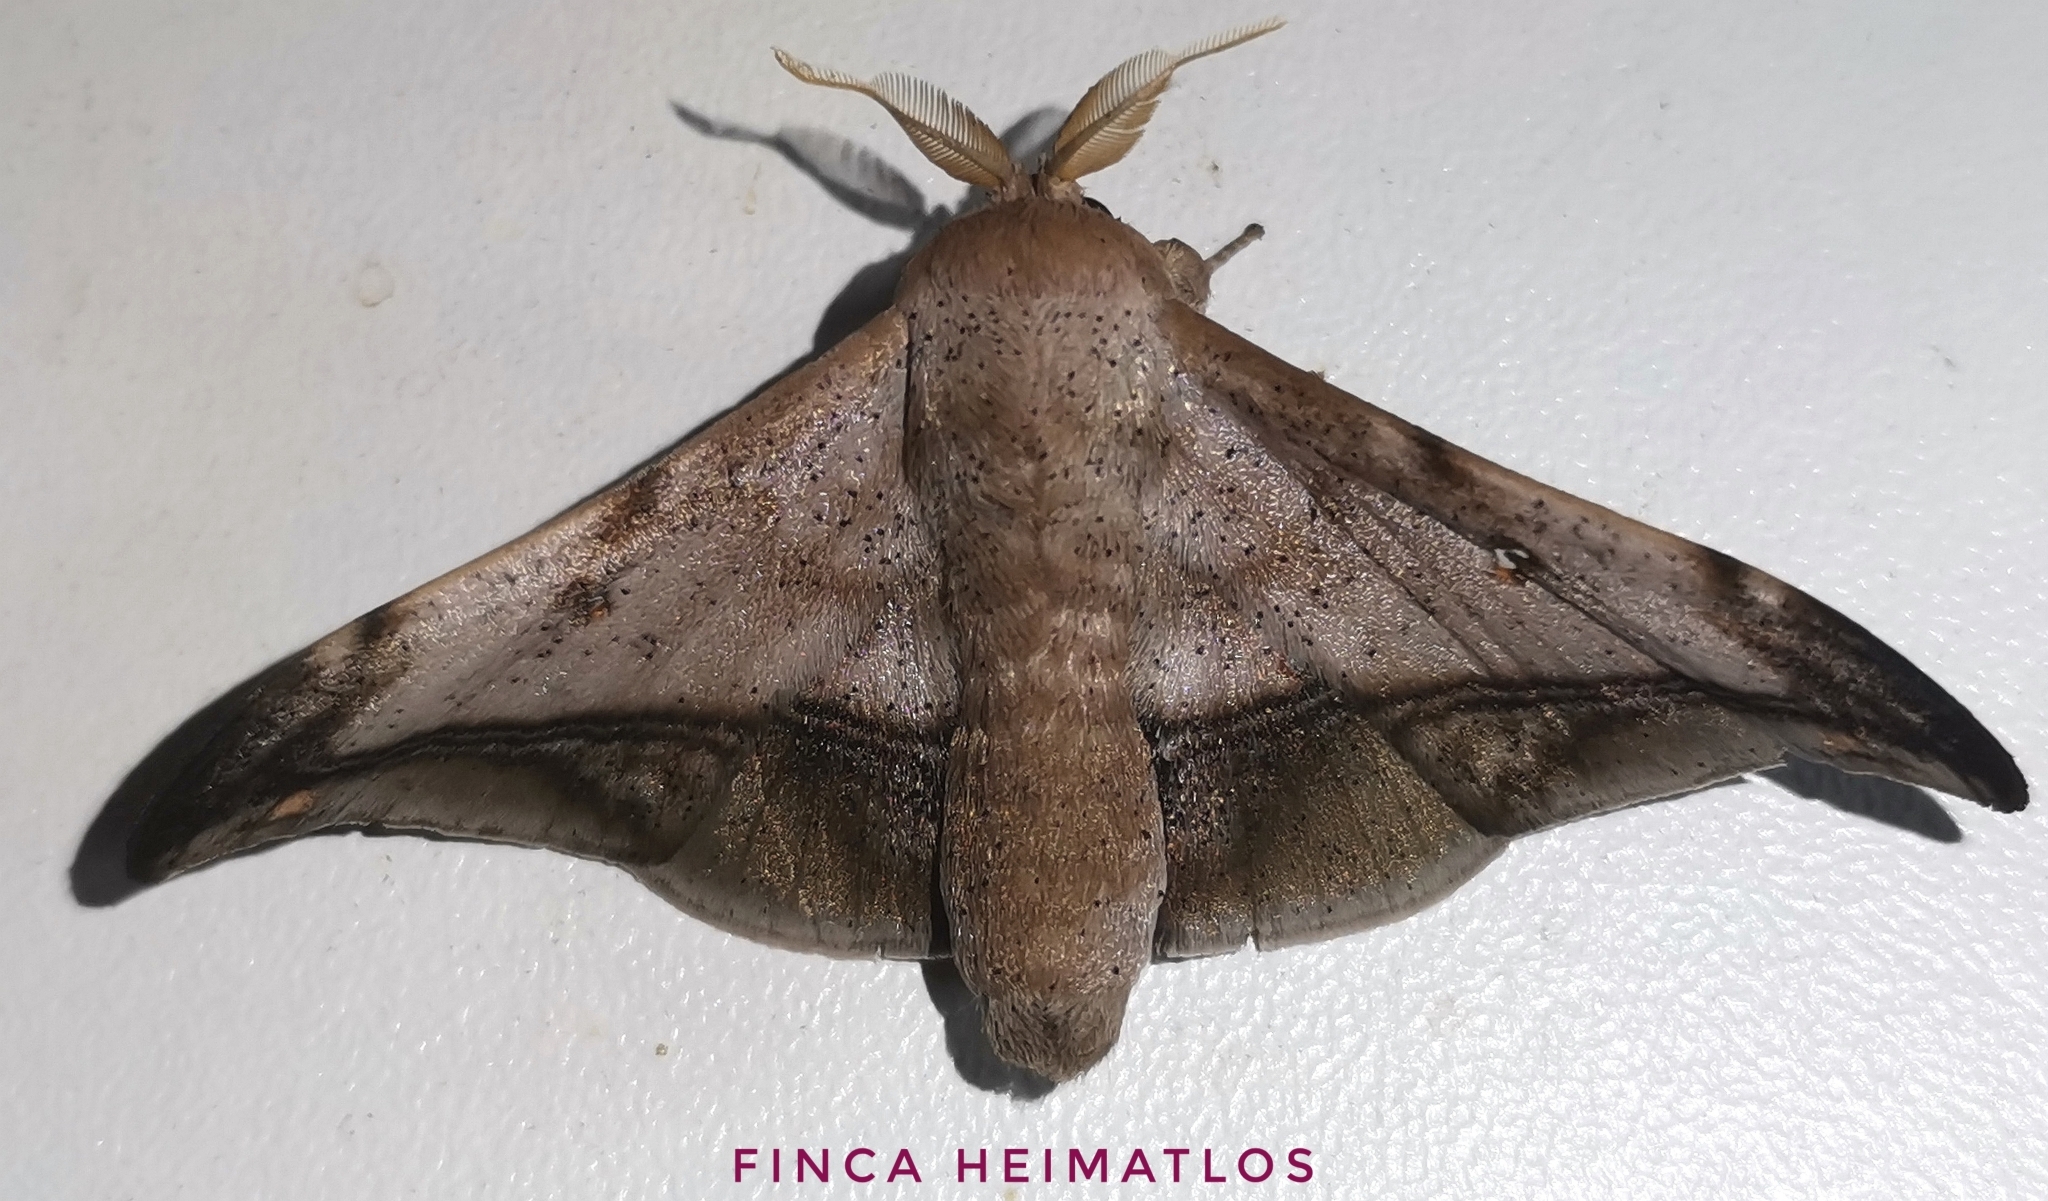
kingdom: Animalia
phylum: Arthropoda
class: Insecta
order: Lepidoptera
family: Mimallonidae
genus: Cicinnus
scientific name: Cicinnus fogia
